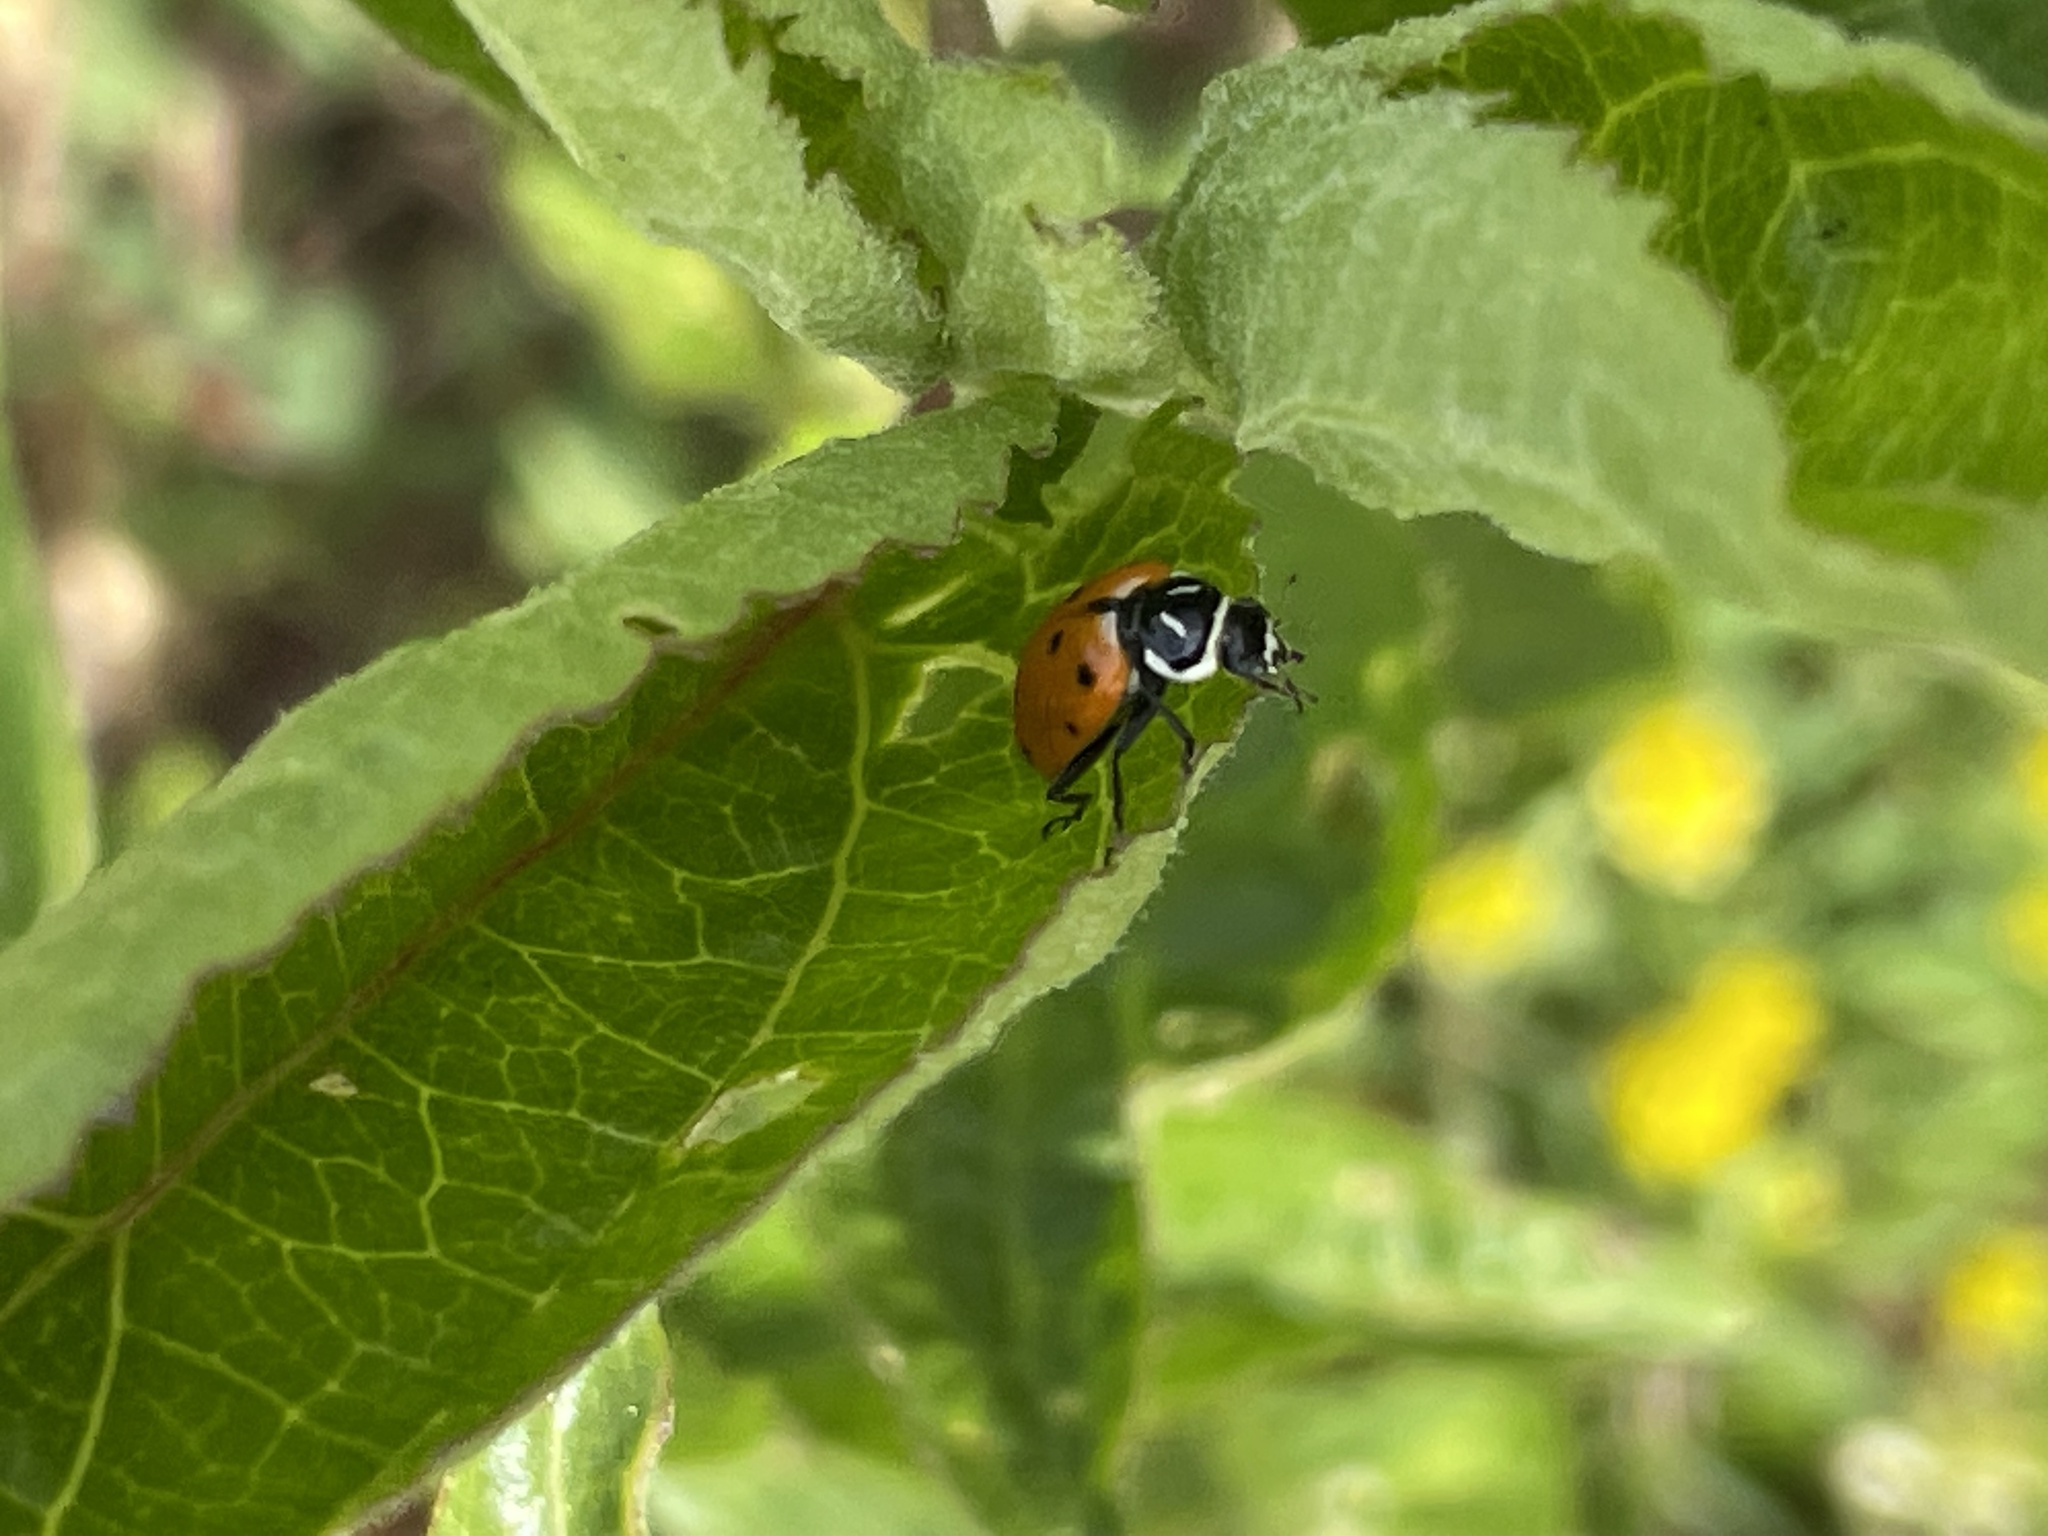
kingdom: Animalia
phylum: Arthropoda
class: Insecta
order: Coleoptera
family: Coccinellidae
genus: Hippodamia
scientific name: Hippodamia convergens
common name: Convergent lady beetle
